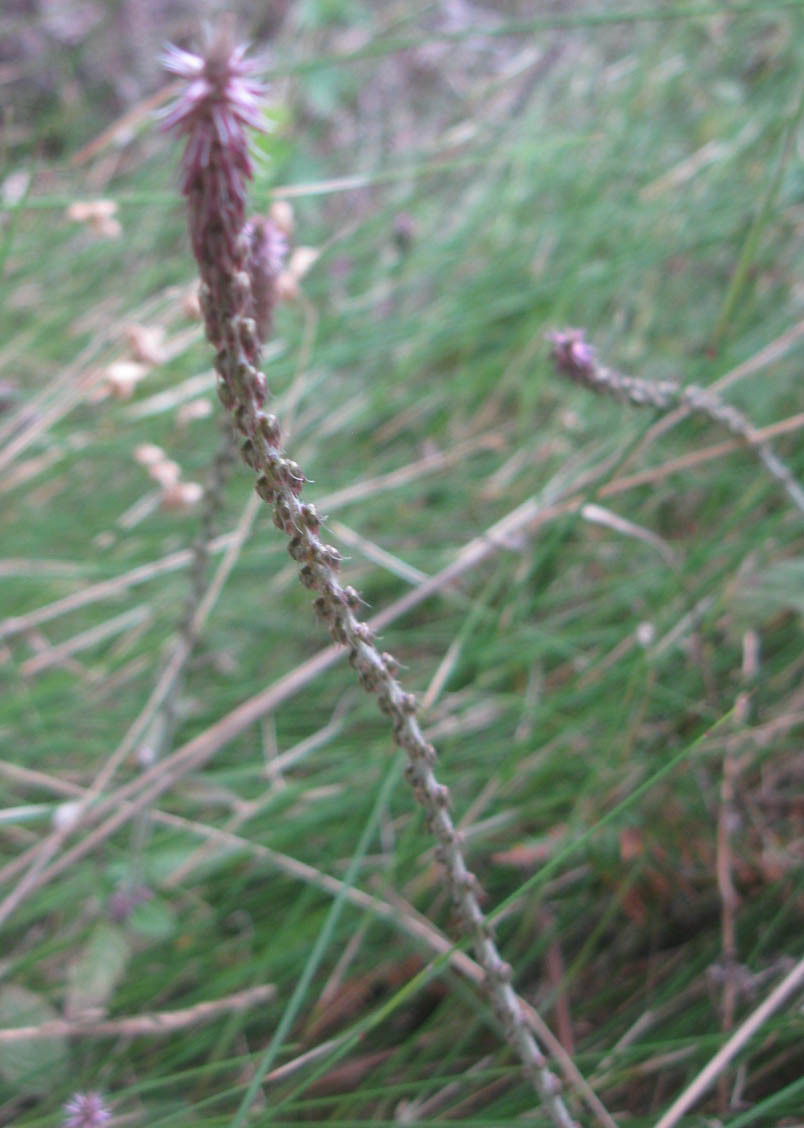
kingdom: Plantae
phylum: Tracheophyta
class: Magnoliopsida
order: Caryophyllales
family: Amaranthaceae
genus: Achyranthes
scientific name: Achyranthes aspera
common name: Devil's horsewhip
